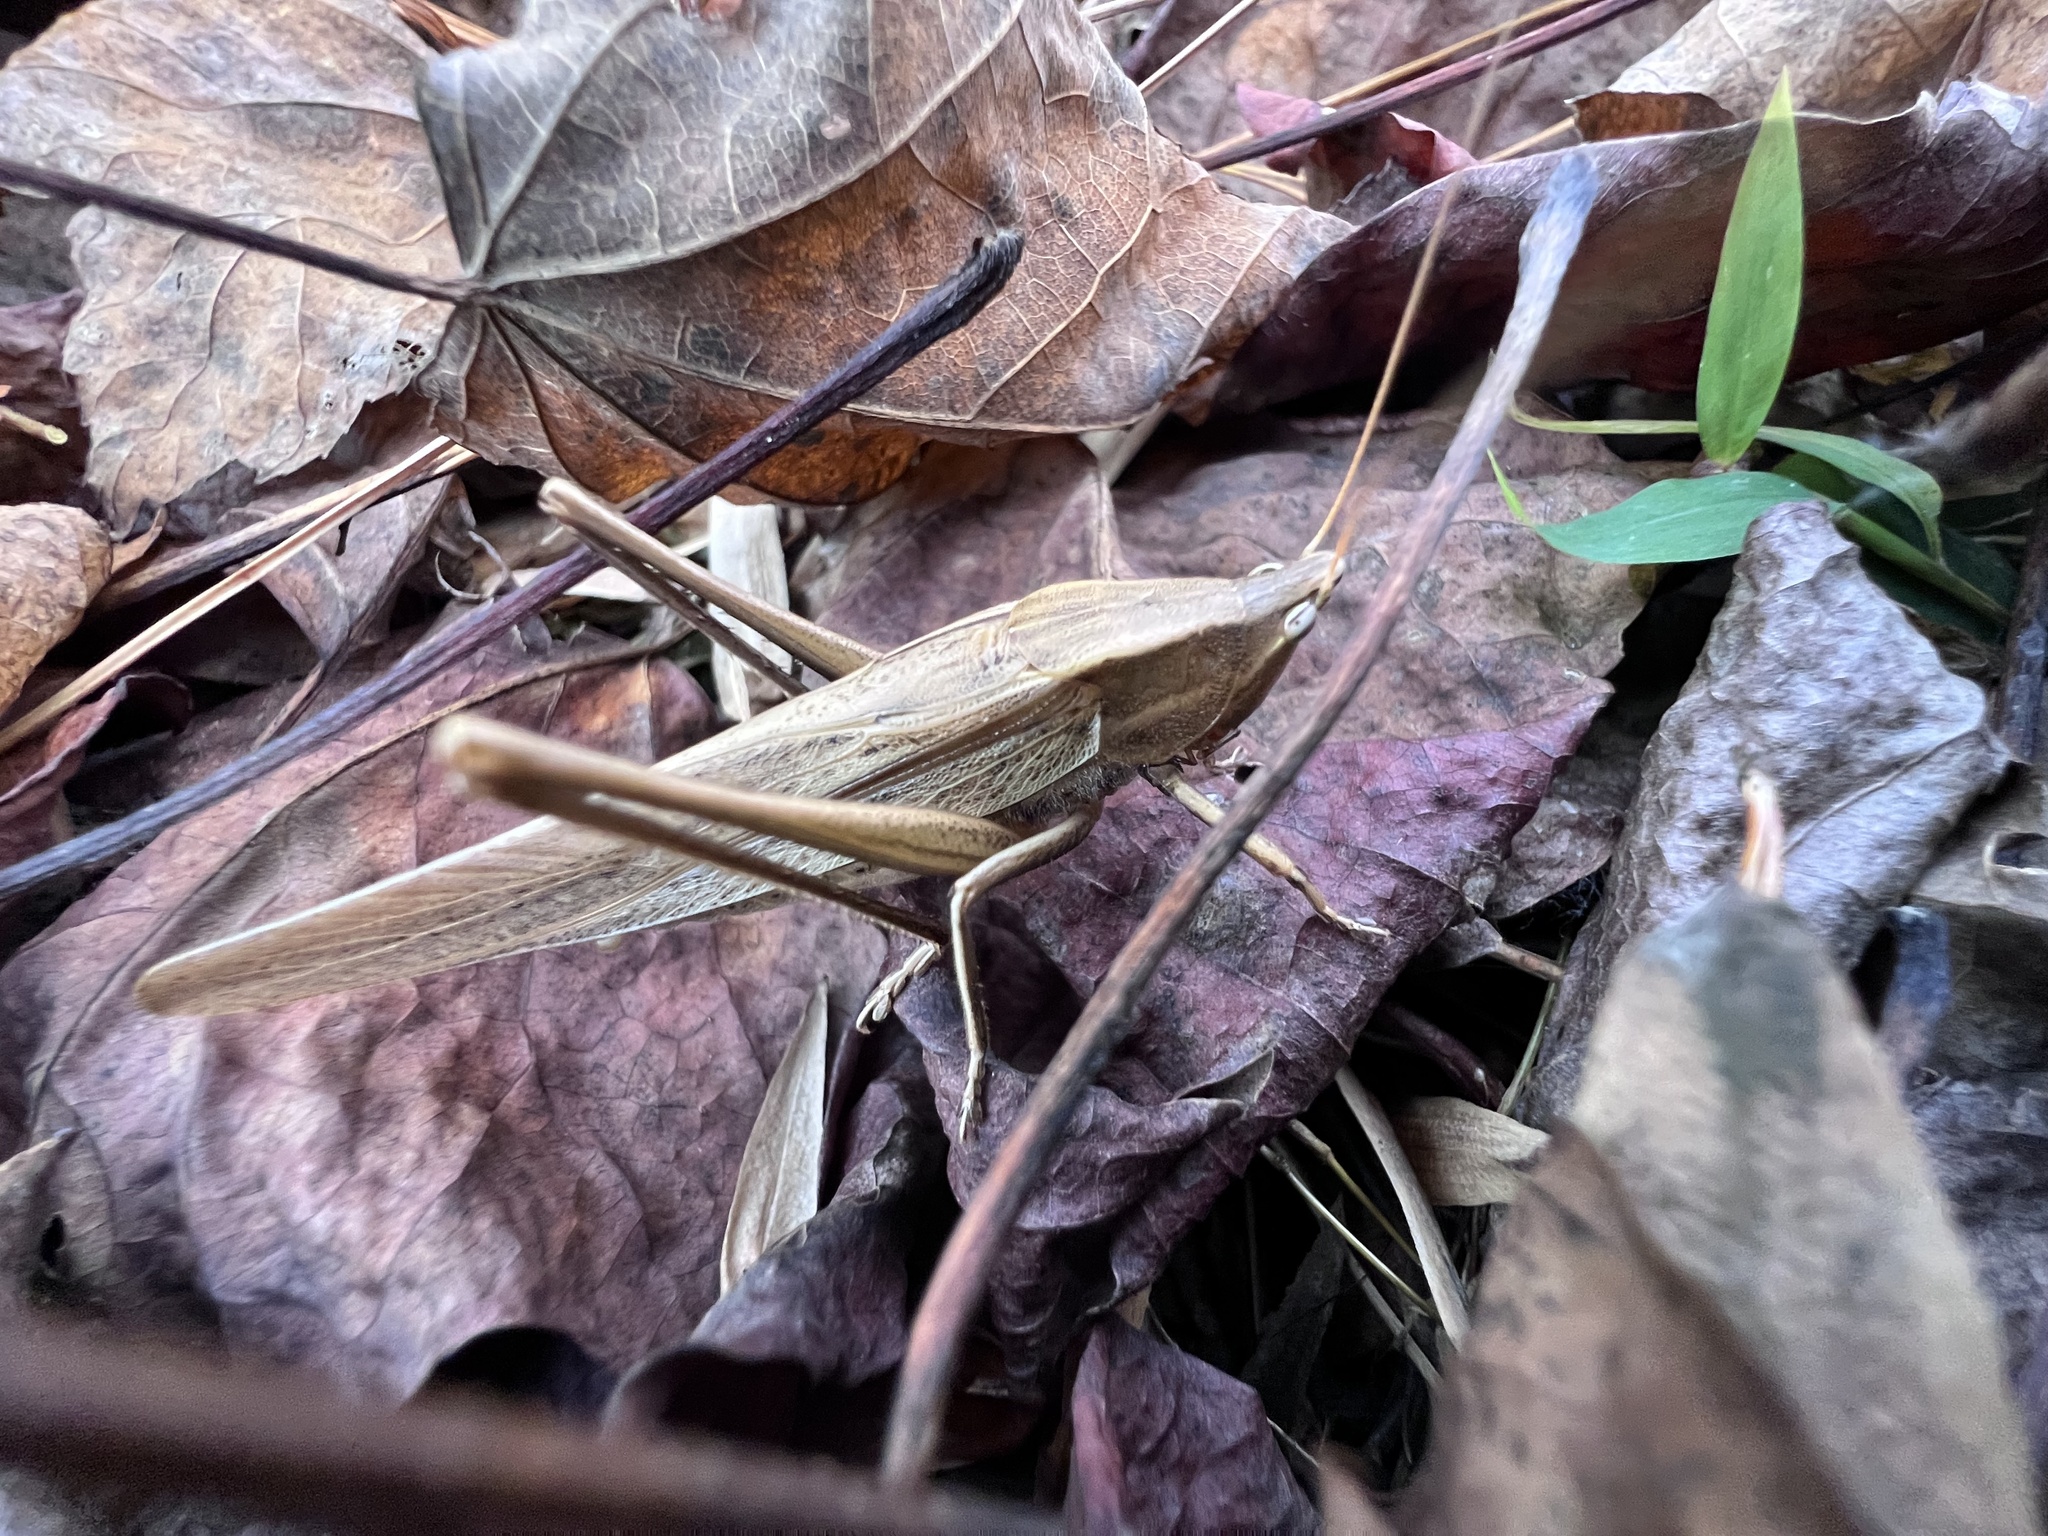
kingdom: Animalia
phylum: Arthropoda
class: Insecta
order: Orthoptera
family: Tettigoniidae
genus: Neoconocephalus
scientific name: Neoconocephalus triops
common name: Broad-tipped conehead
